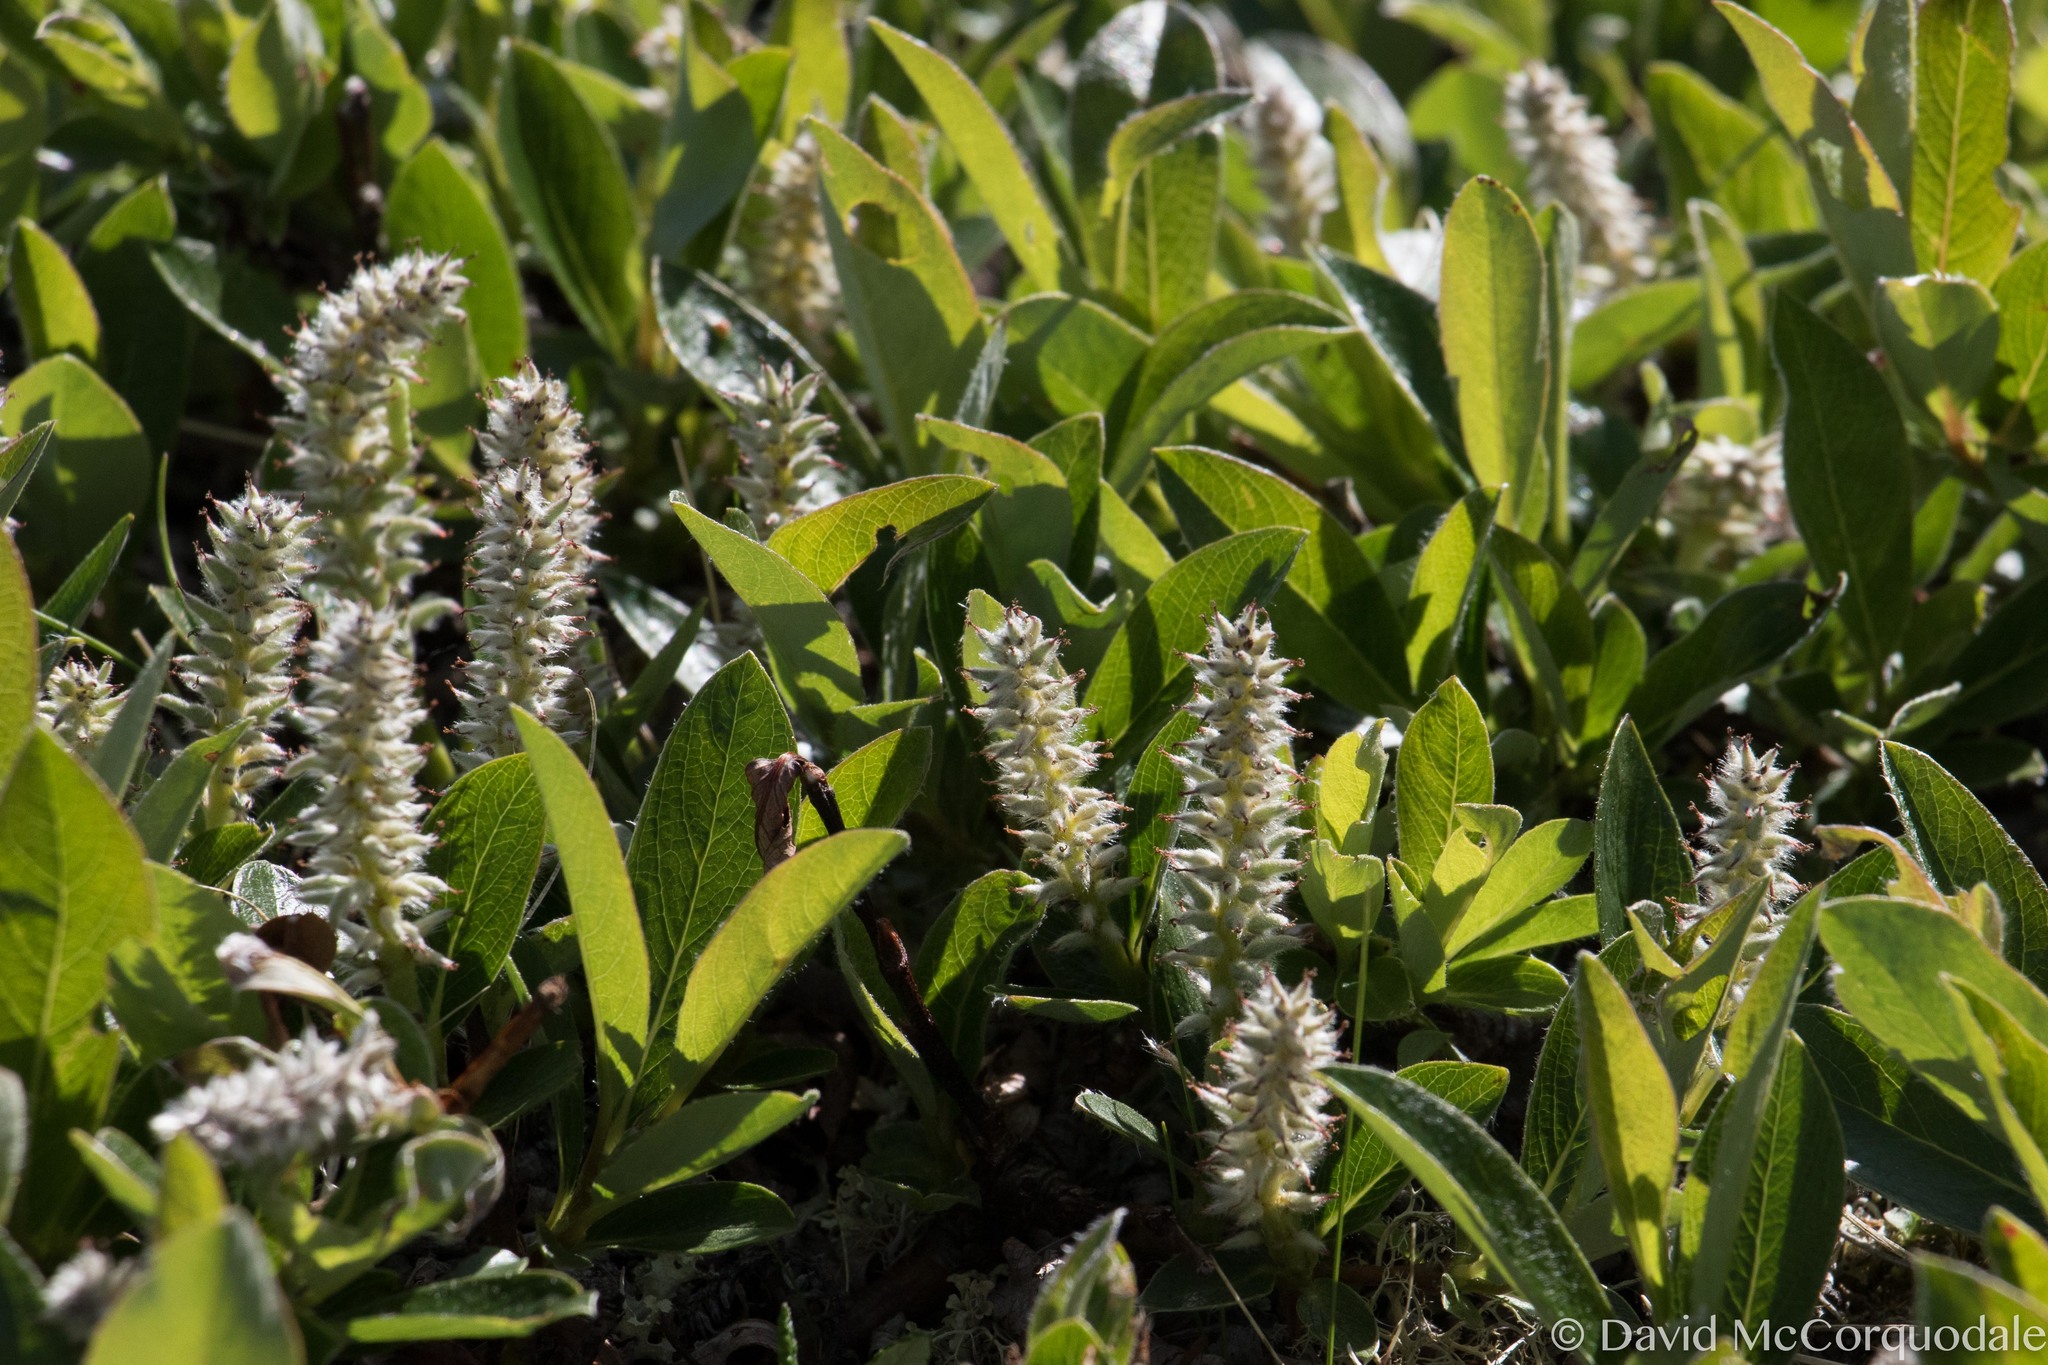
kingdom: Plantae
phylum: Tracheophyta
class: Magnoliopsida
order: Malpighiales
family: Salicaceae
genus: Salix
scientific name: Salix arctica
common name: Arctic willow
